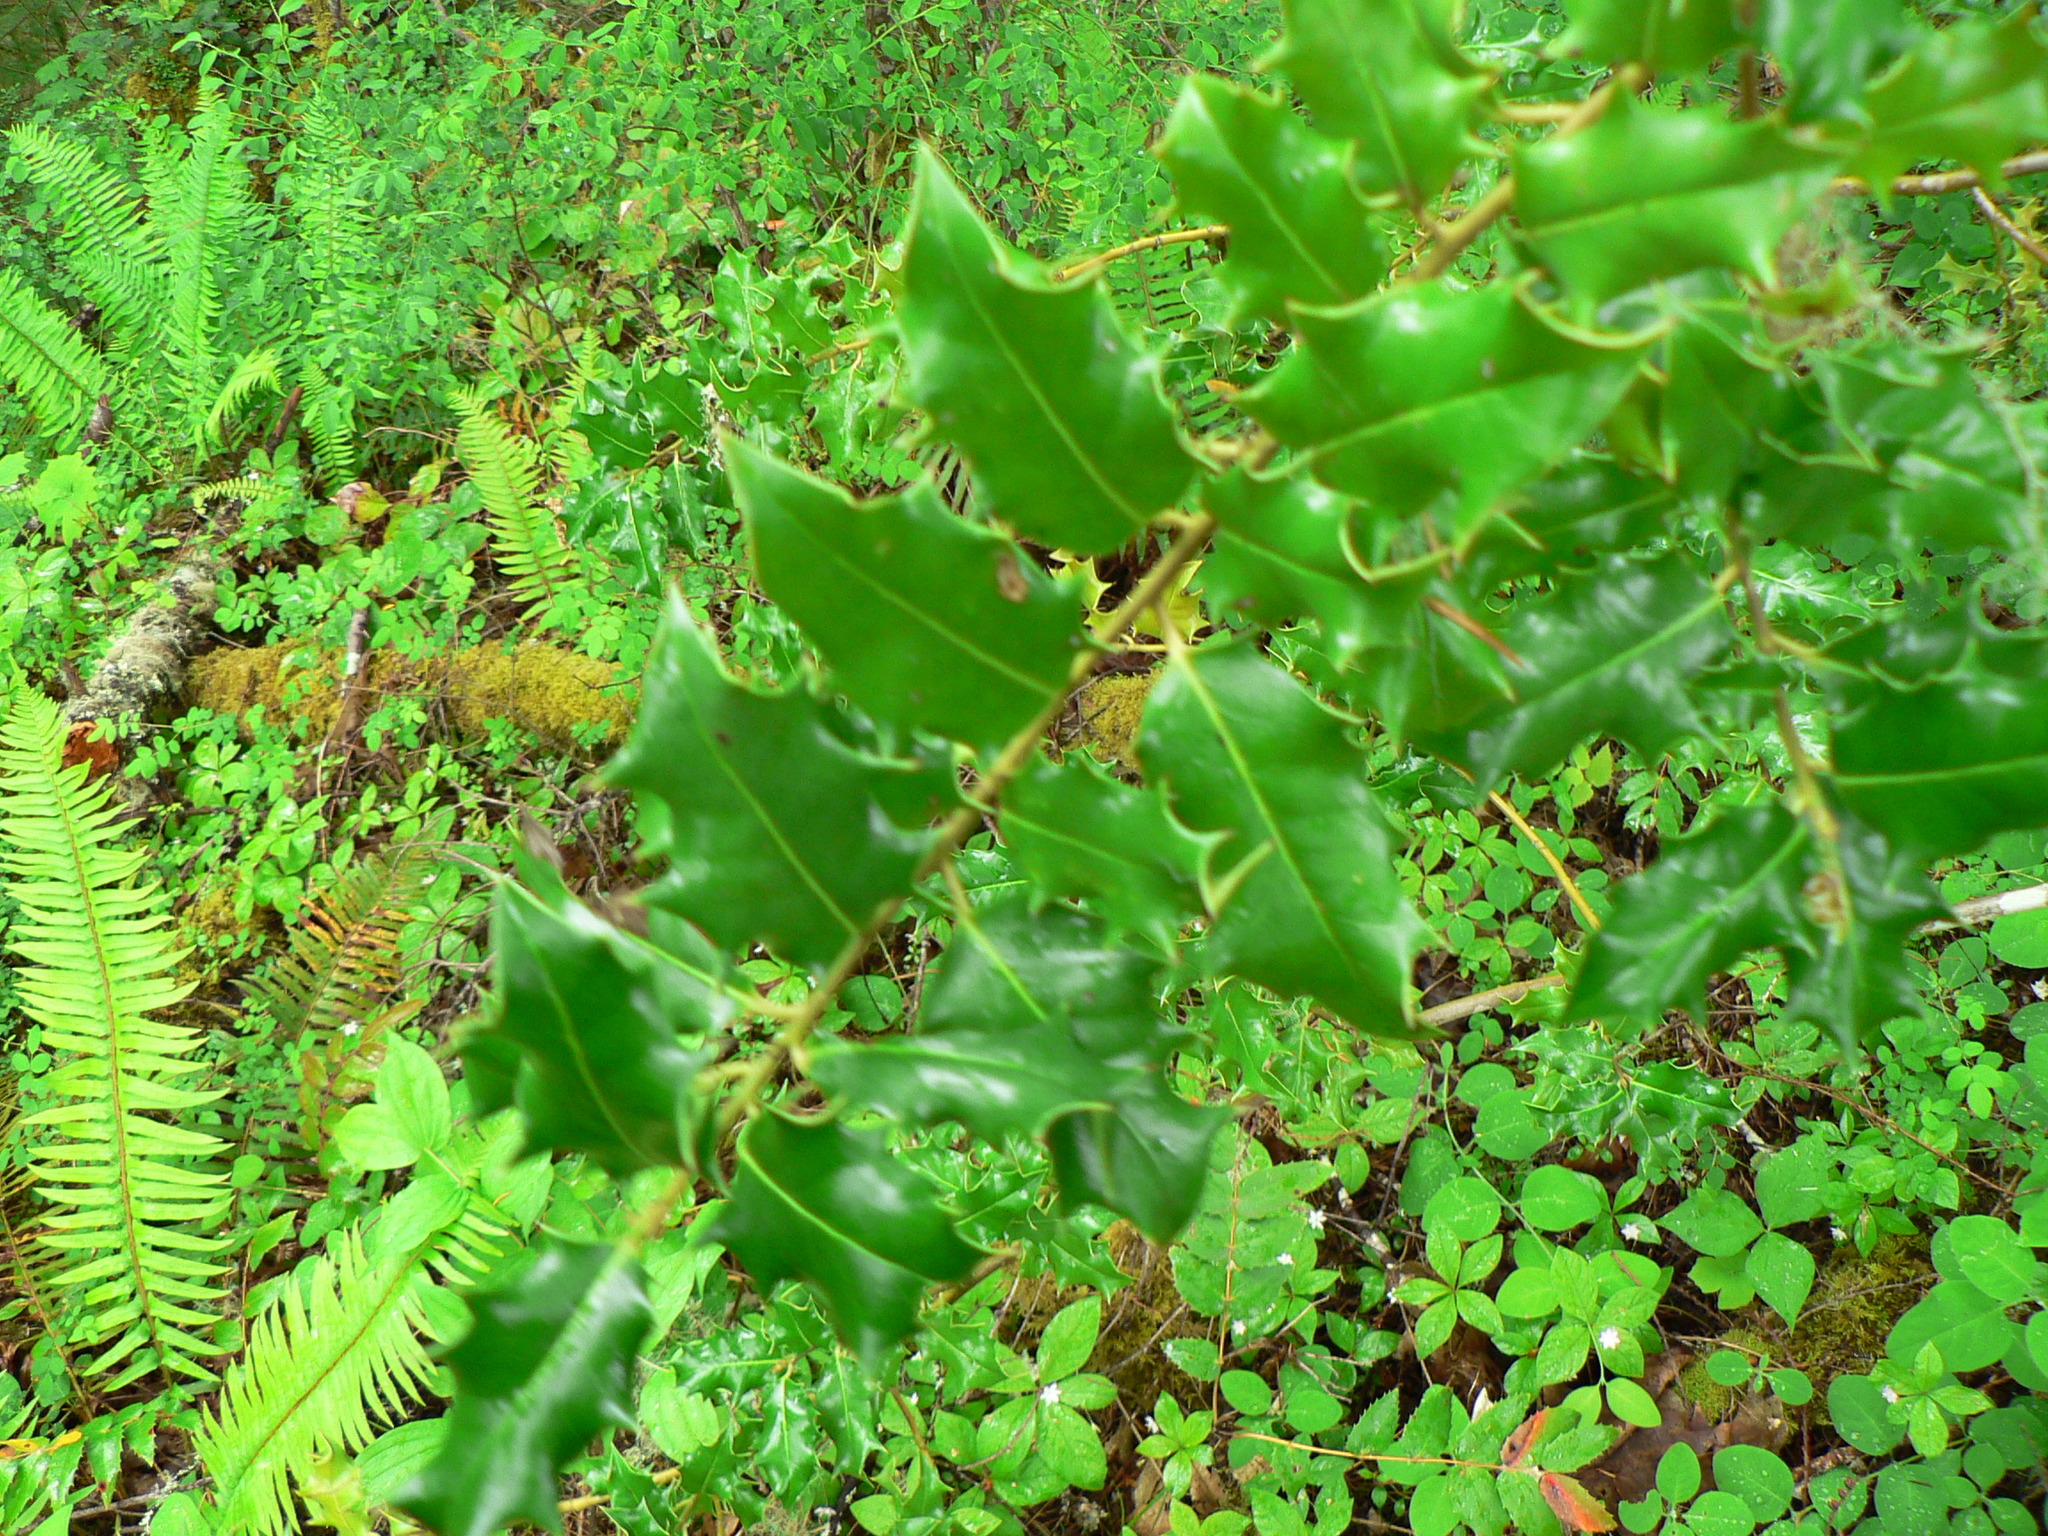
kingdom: Plantae
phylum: Tracheophyta
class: Magnoliopsida
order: Aquifoliales
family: Aquifoliaceae
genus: Ilex
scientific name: Ilex aquifolium
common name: English holly
